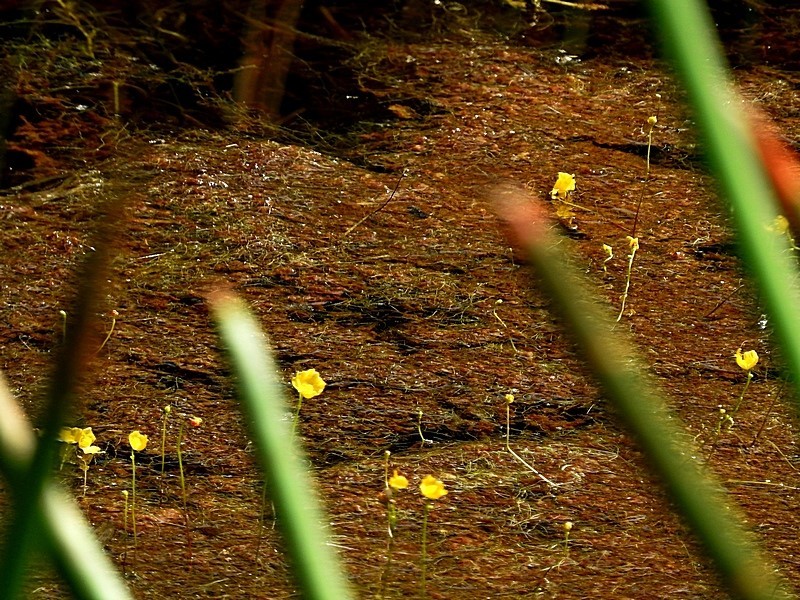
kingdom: Plantae
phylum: Tracheophyta
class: Magnoliopsida
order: Lamiales
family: Lentibulariaceae
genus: Utricularia
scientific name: Utricularia gibba
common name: Humped bladderwort
